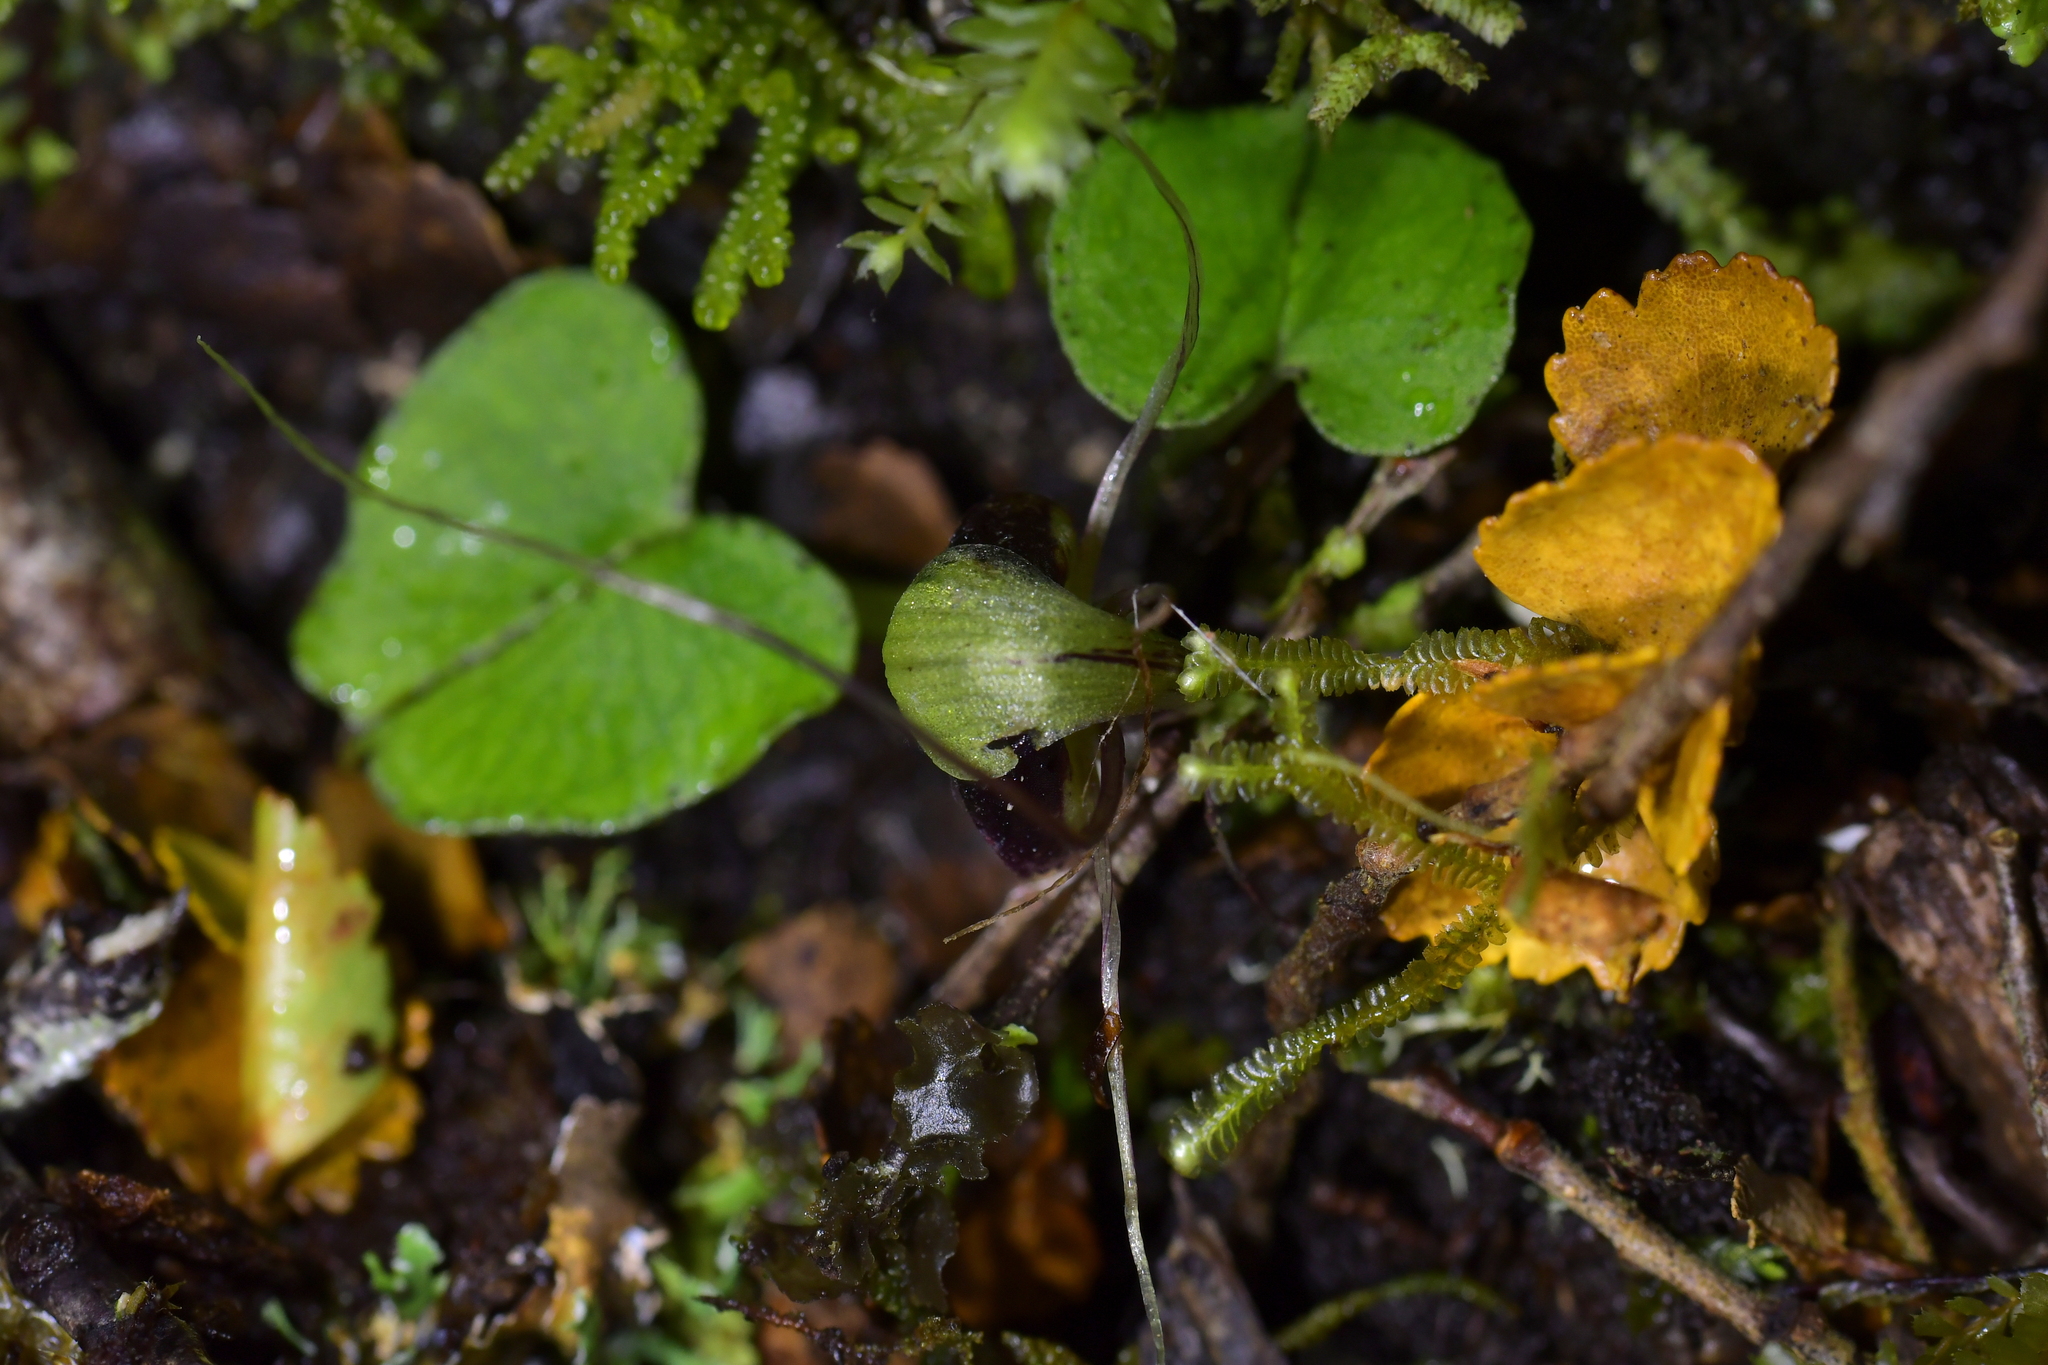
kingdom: Plantae
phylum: Tracheophyta
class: Liliopsida
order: Asparagales
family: Orchidaceae
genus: Corybas
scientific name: Corybas vitreus
